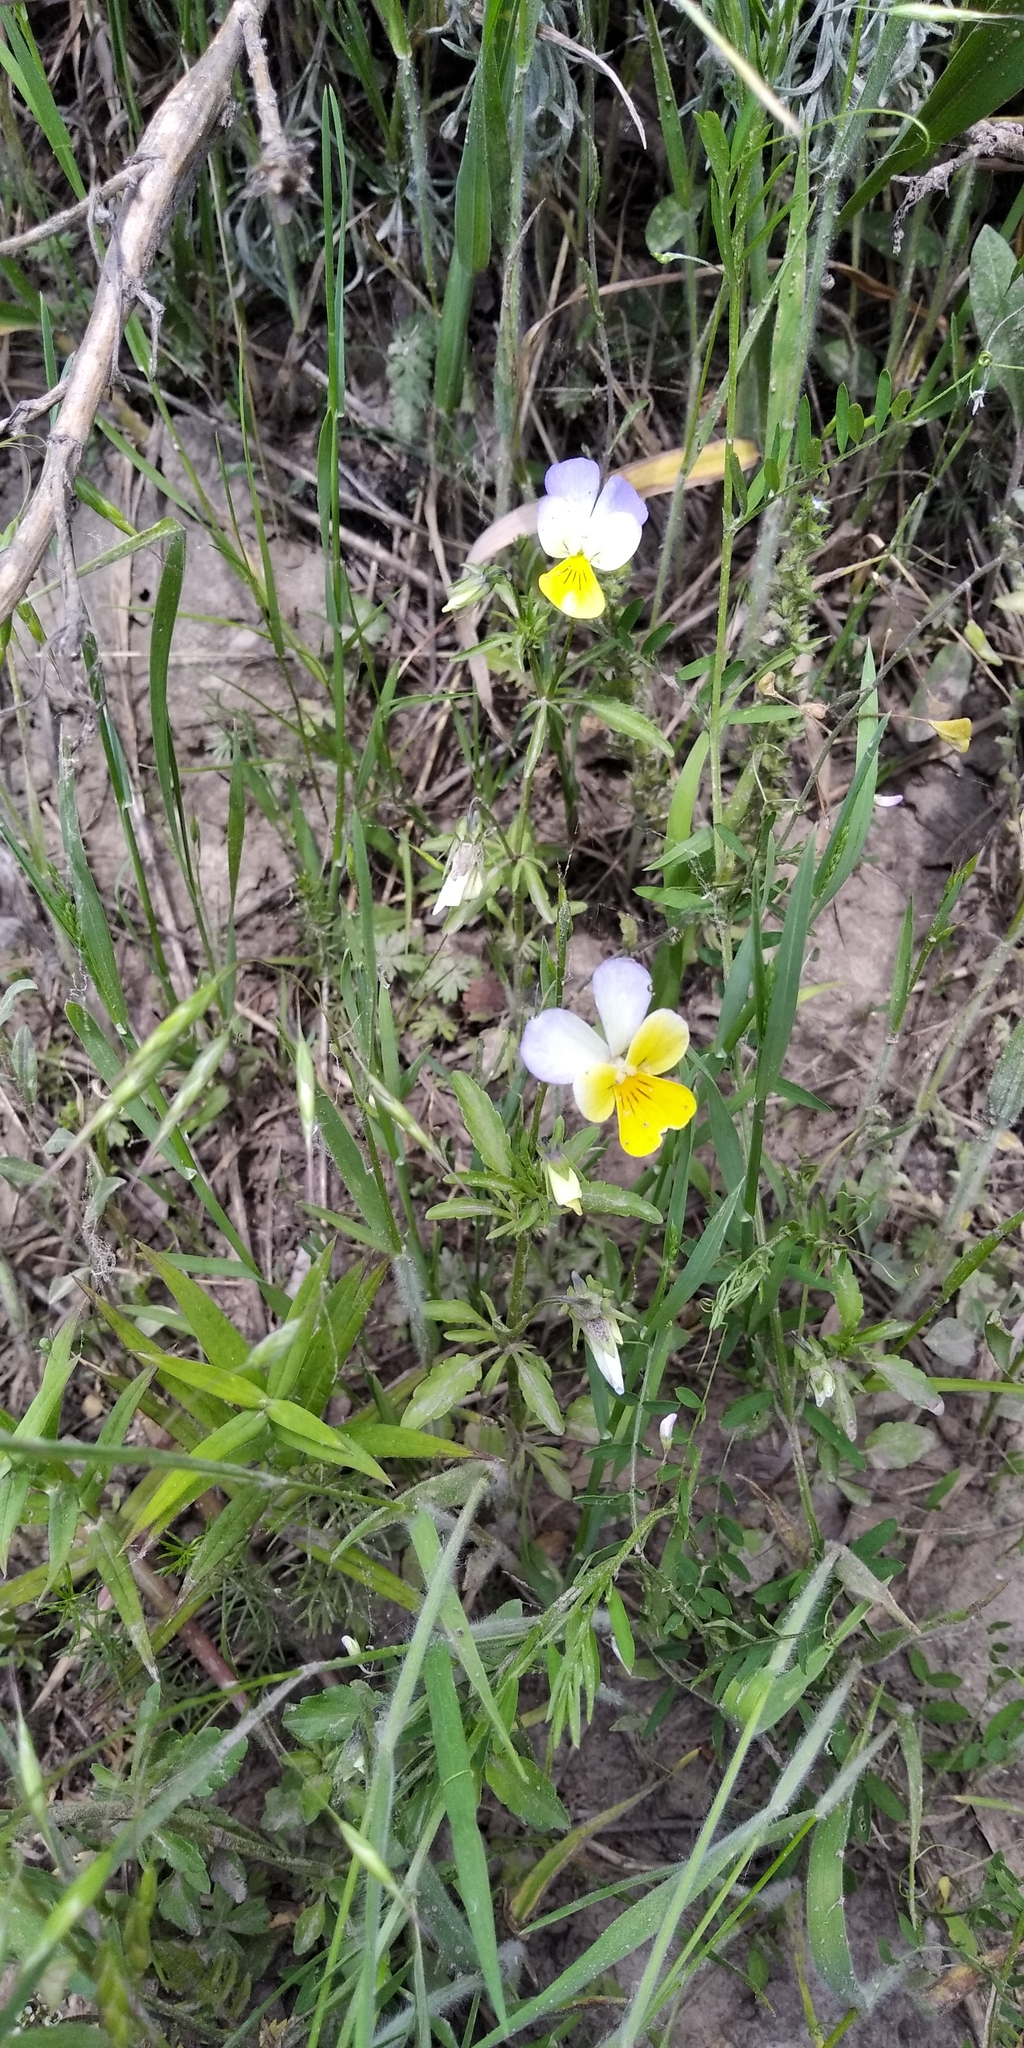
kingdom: Plantae
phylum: Tracheophyta
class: Magnoliopsida
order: Malpighiales
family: Violaceae
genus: Viola
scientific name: Viola tricolor
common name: Pansy
